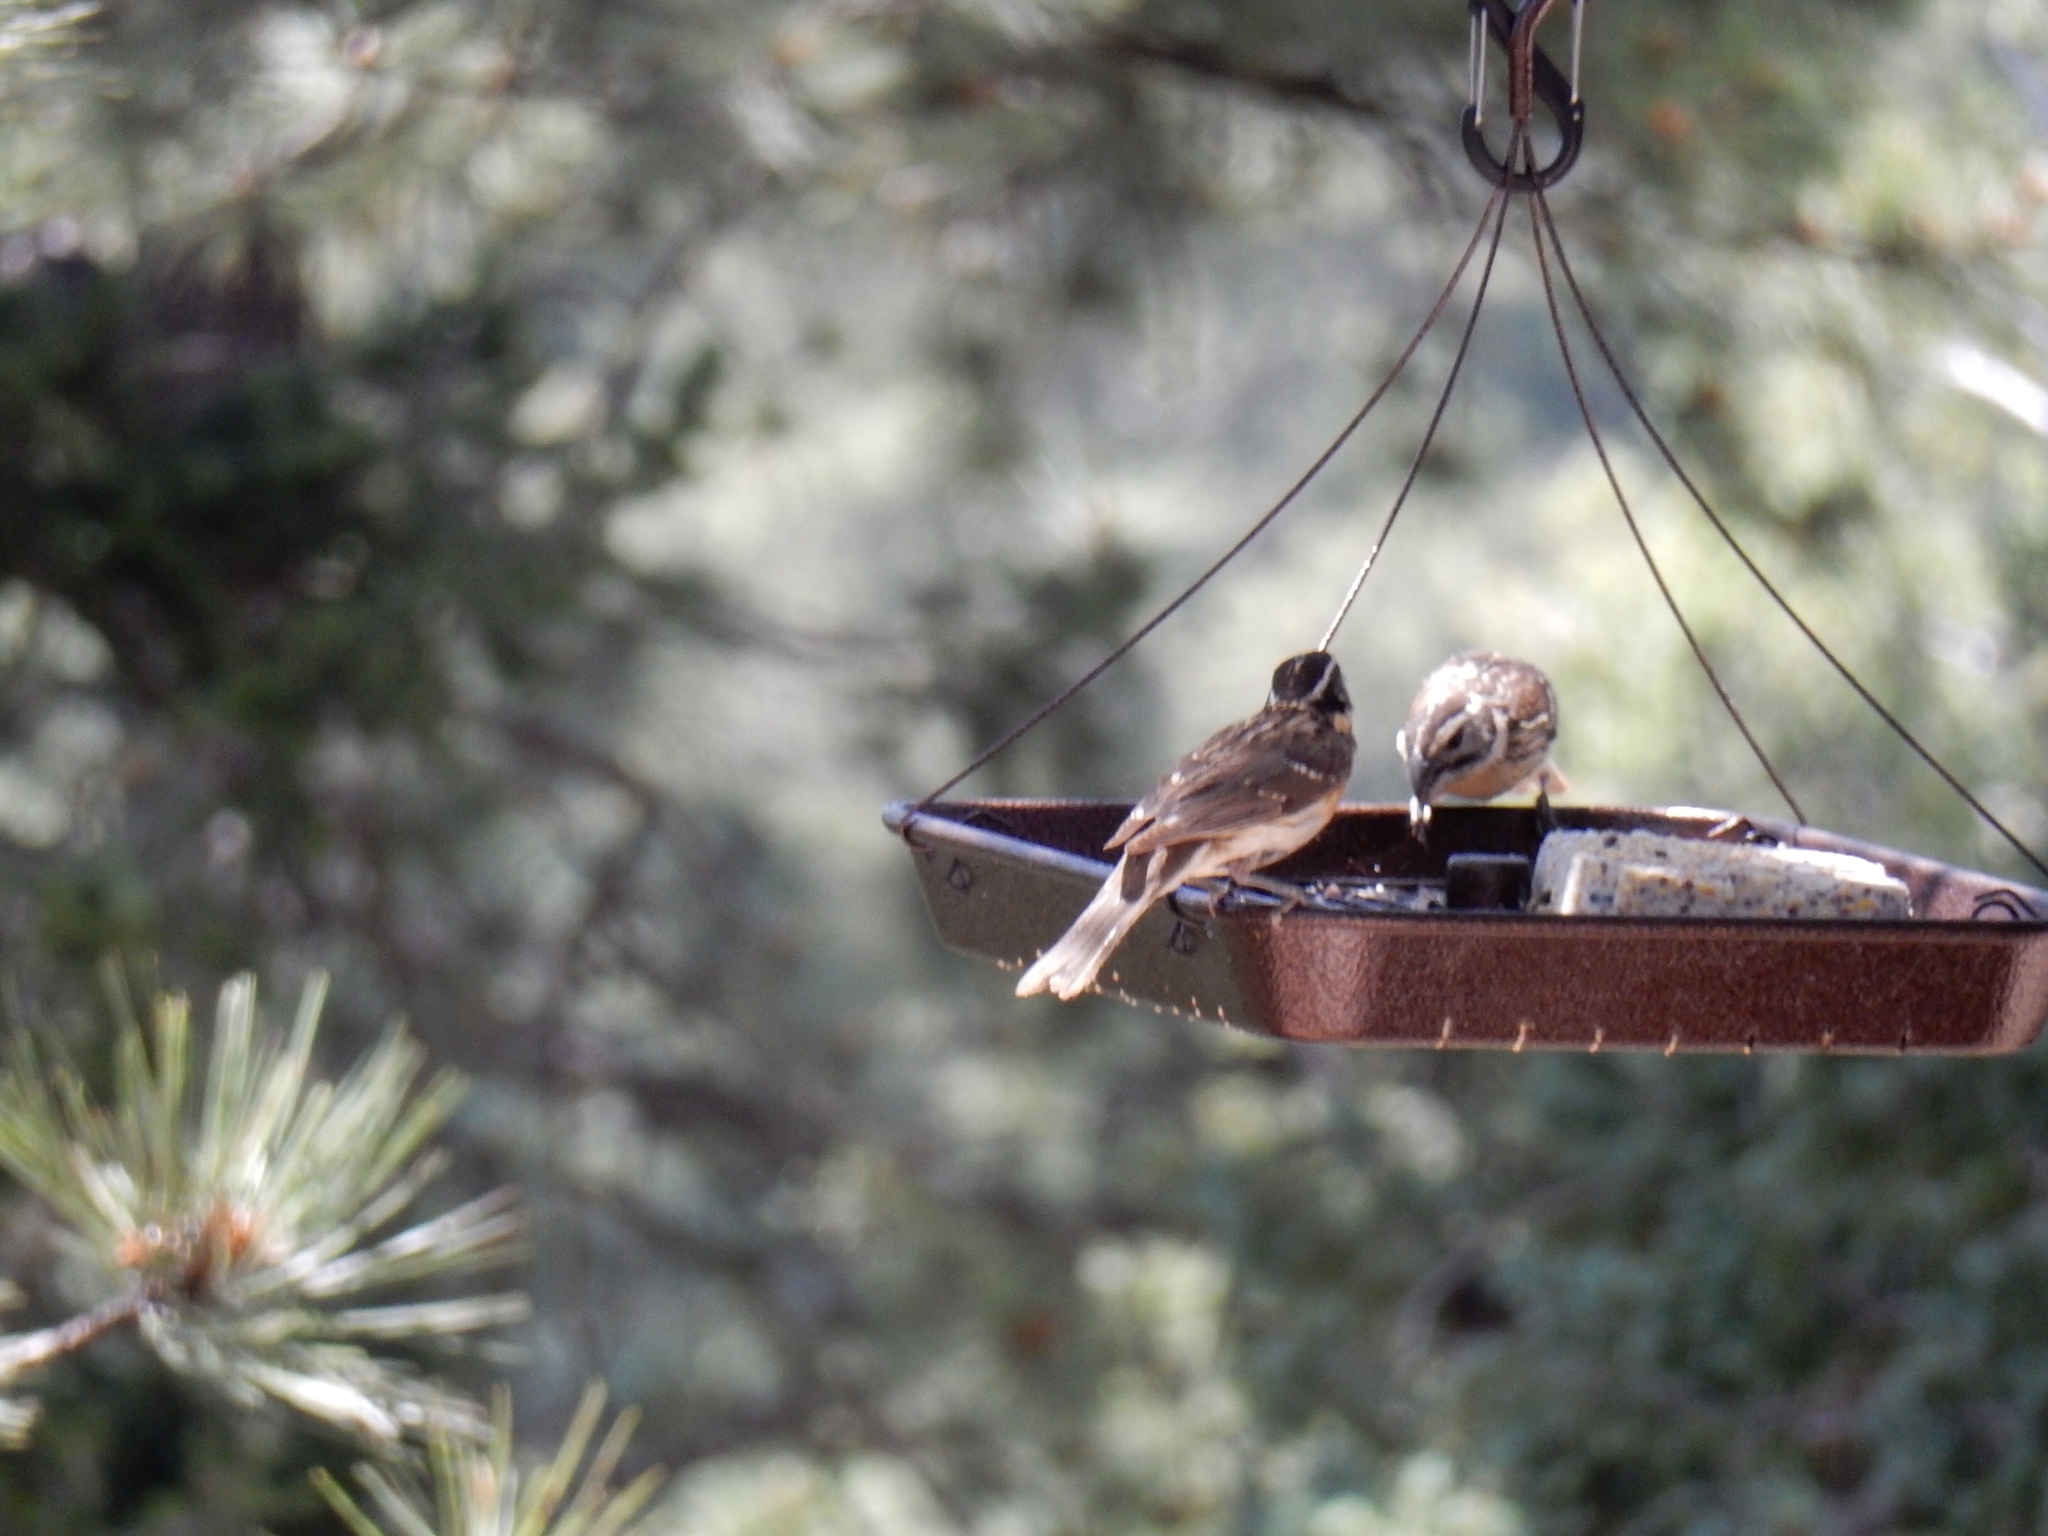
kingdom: Animalia
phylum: Chordata
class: Aves
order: Passeriformes
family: Cardinalidae
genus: Pheucticus
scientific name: Pheucticus melanocephalus
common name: Black-headed grosbeak
